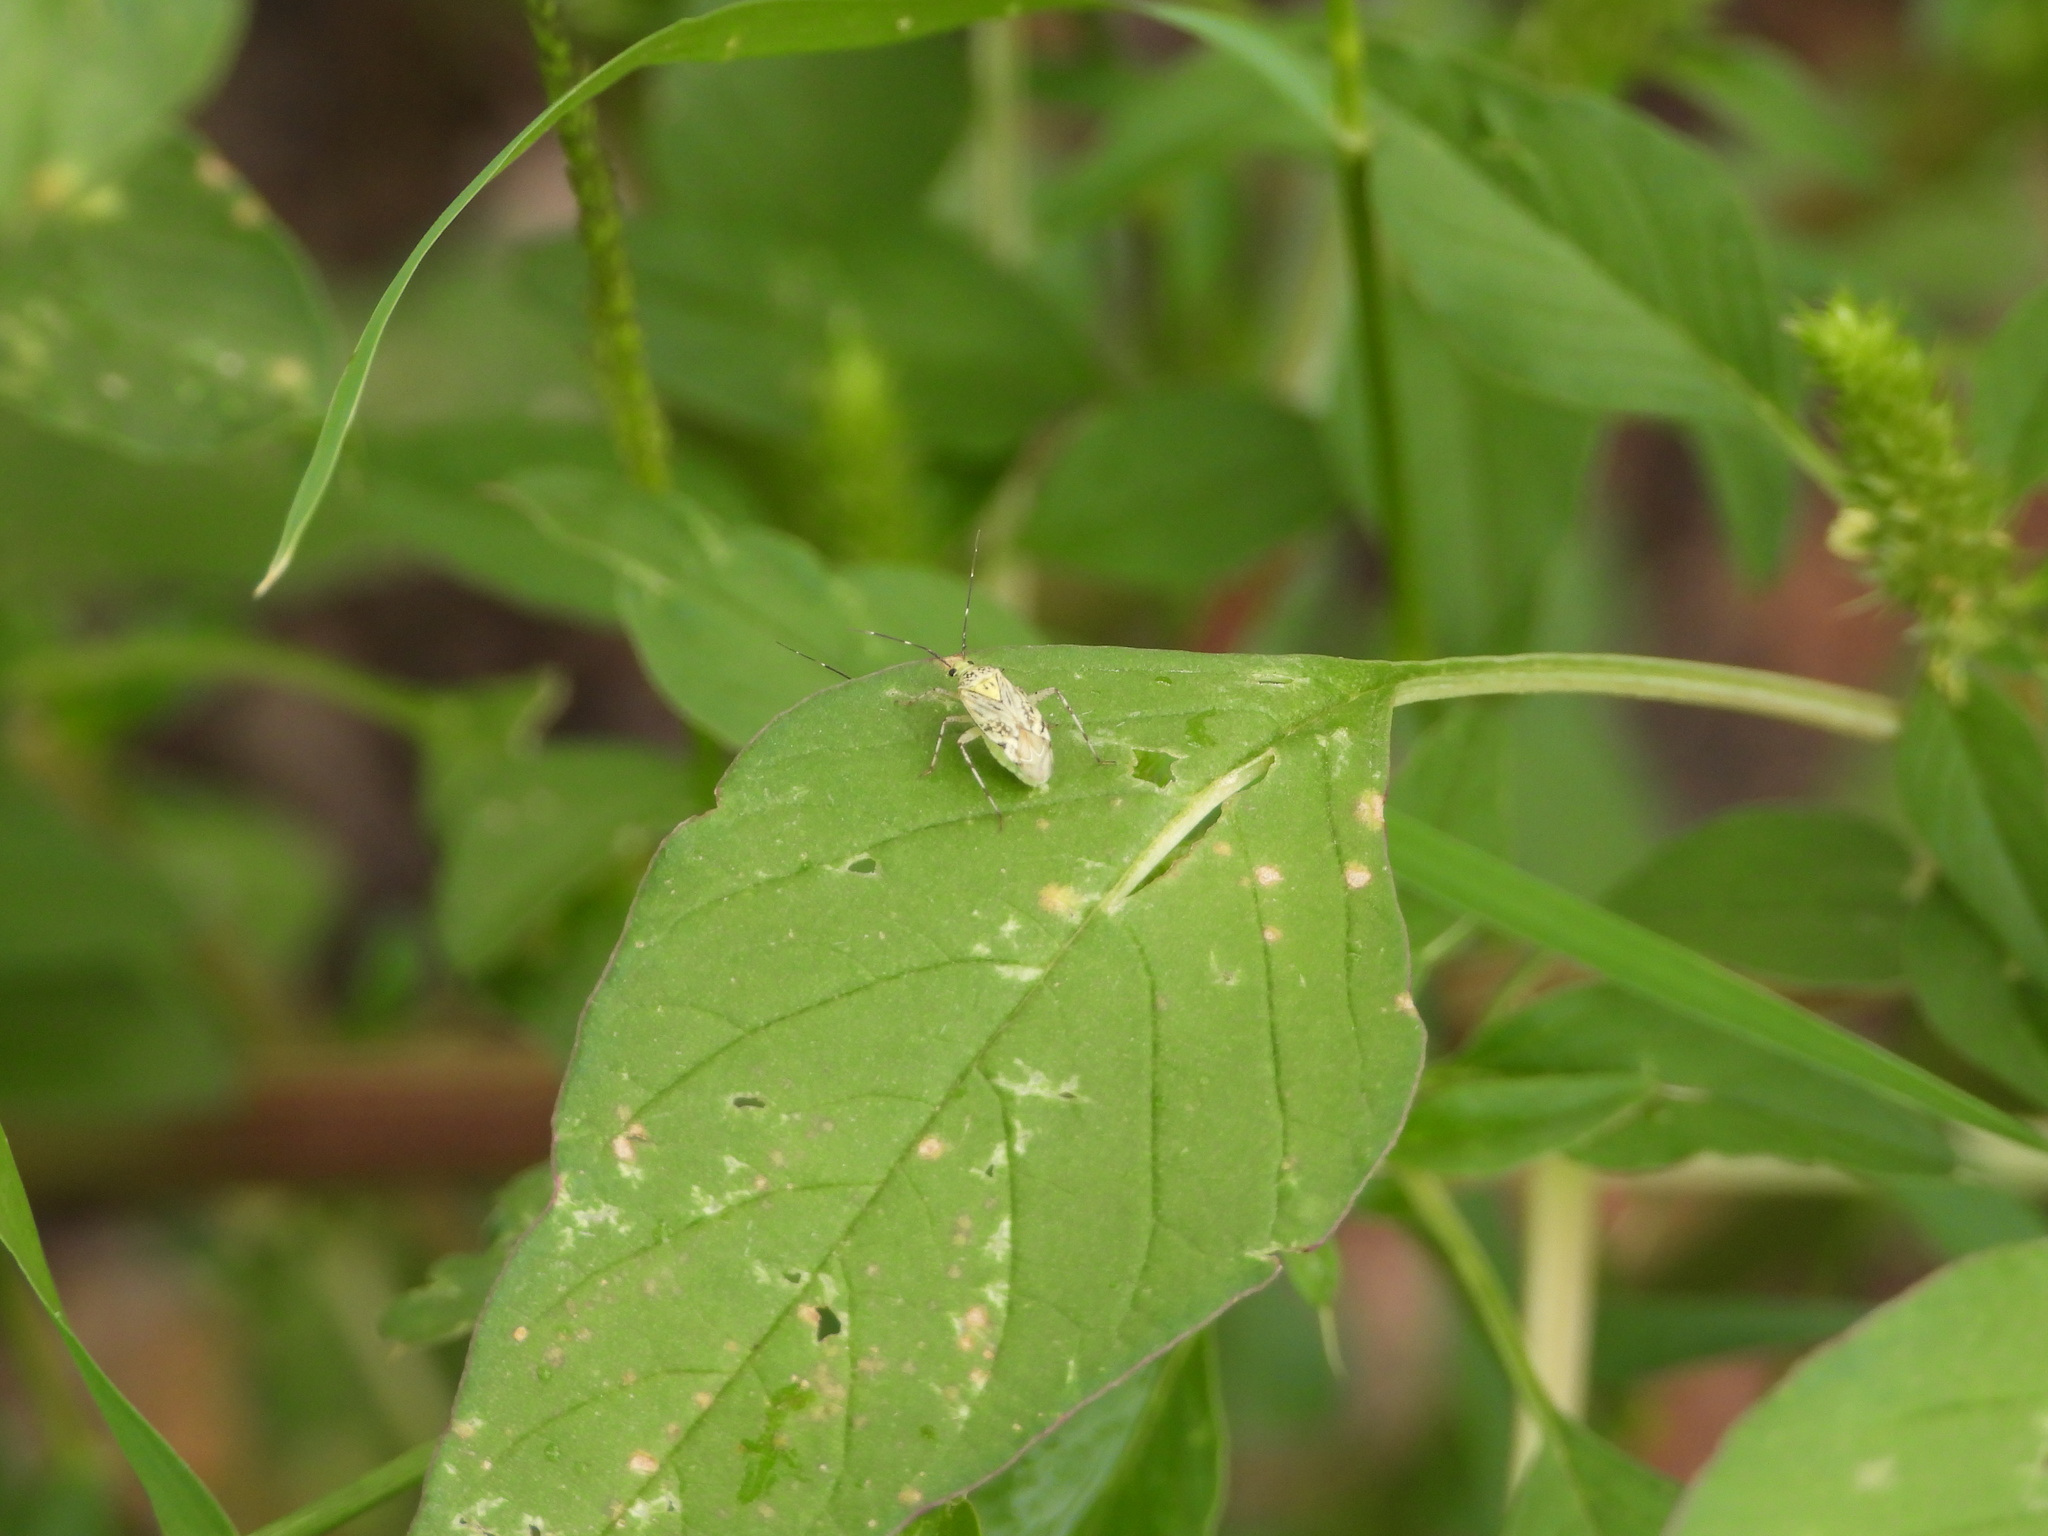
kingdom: Animalia
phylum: Arthropoda
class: Insecta
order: Hemiptera
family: Miridae
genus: Taedia
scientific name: Taedia marmorata
